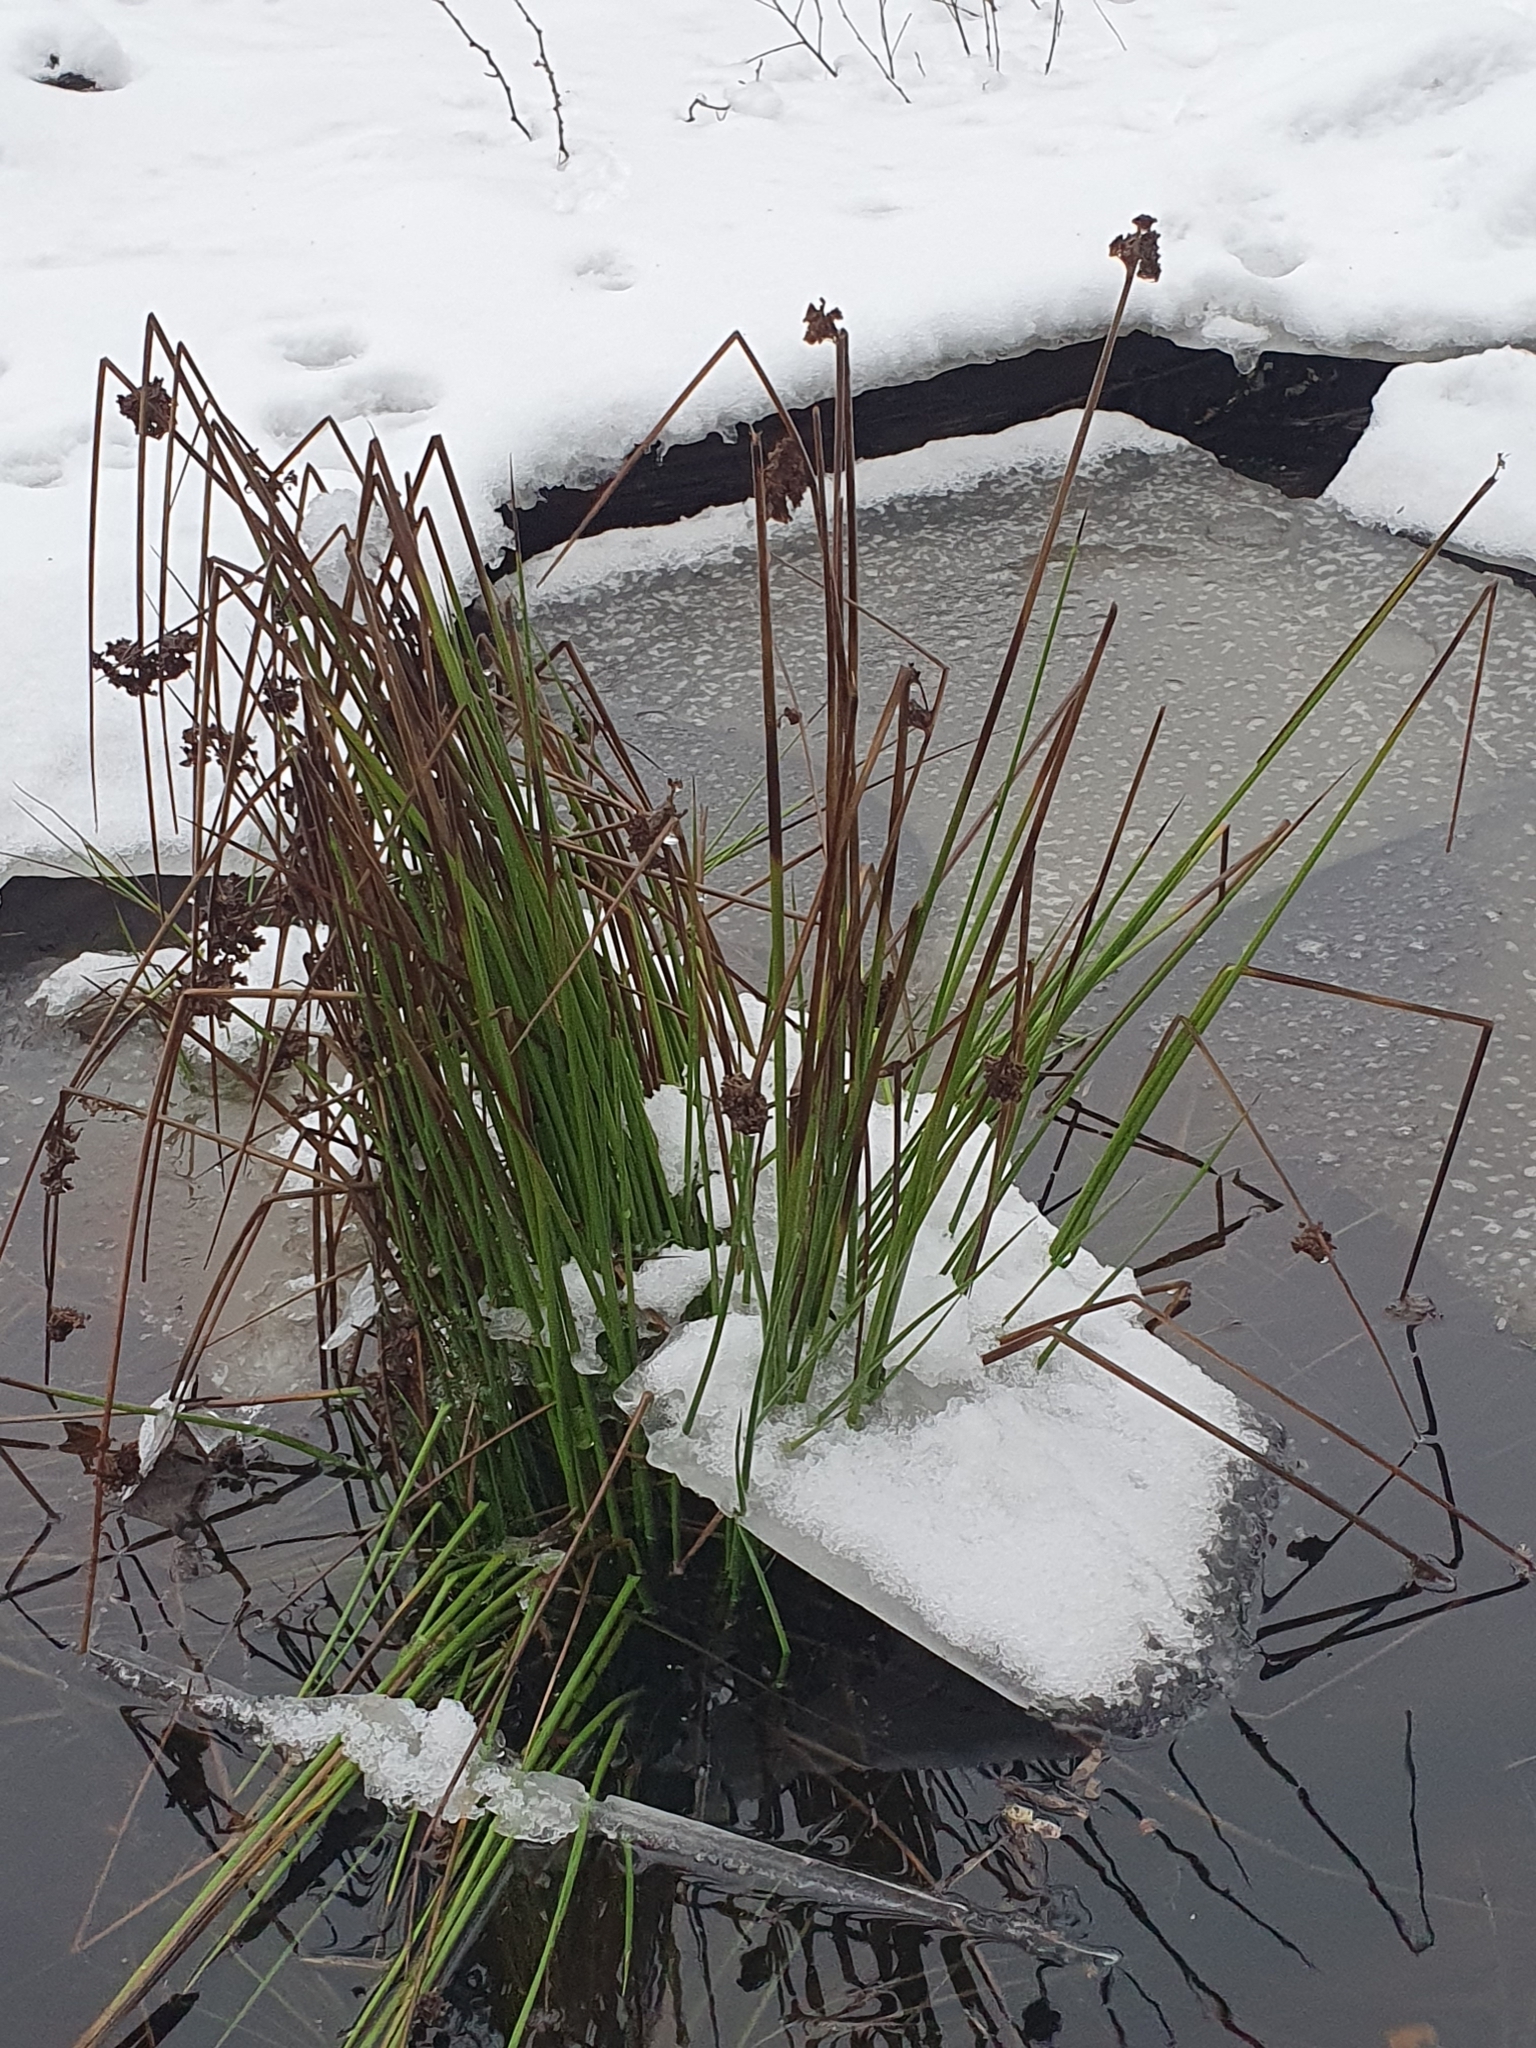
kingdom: Plantae
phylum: Tracheophyta
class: Liliopsida
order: Poales
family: Juncaceae
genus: Juncus
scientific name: Juncus effusus
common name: Soft rush
